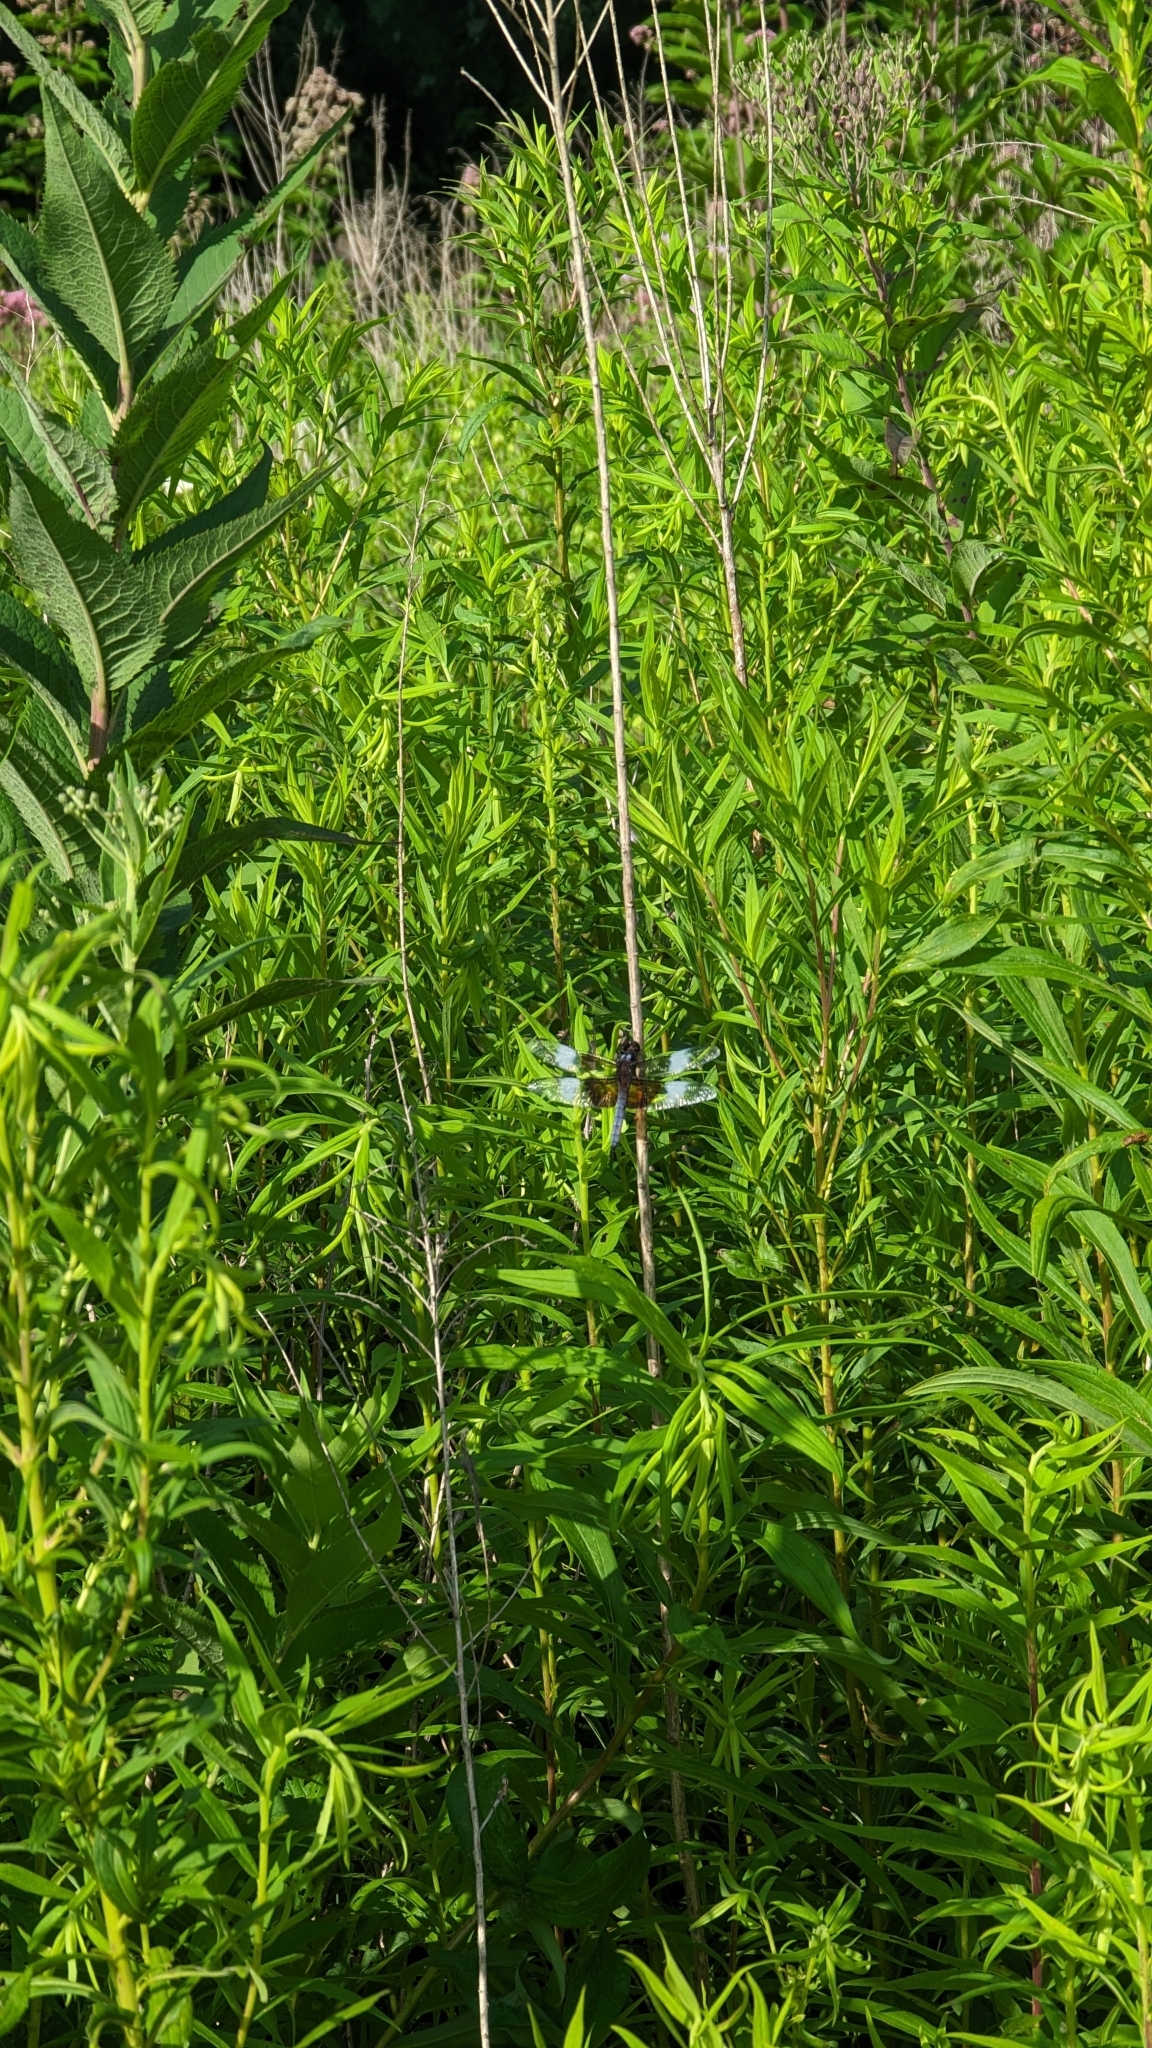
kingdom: Animalia
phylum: Arthropoda
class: Insecta
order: Odonata
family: Libellulidae
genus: Libellula
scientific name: Libellula luctuosa
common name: Widow skimmer
